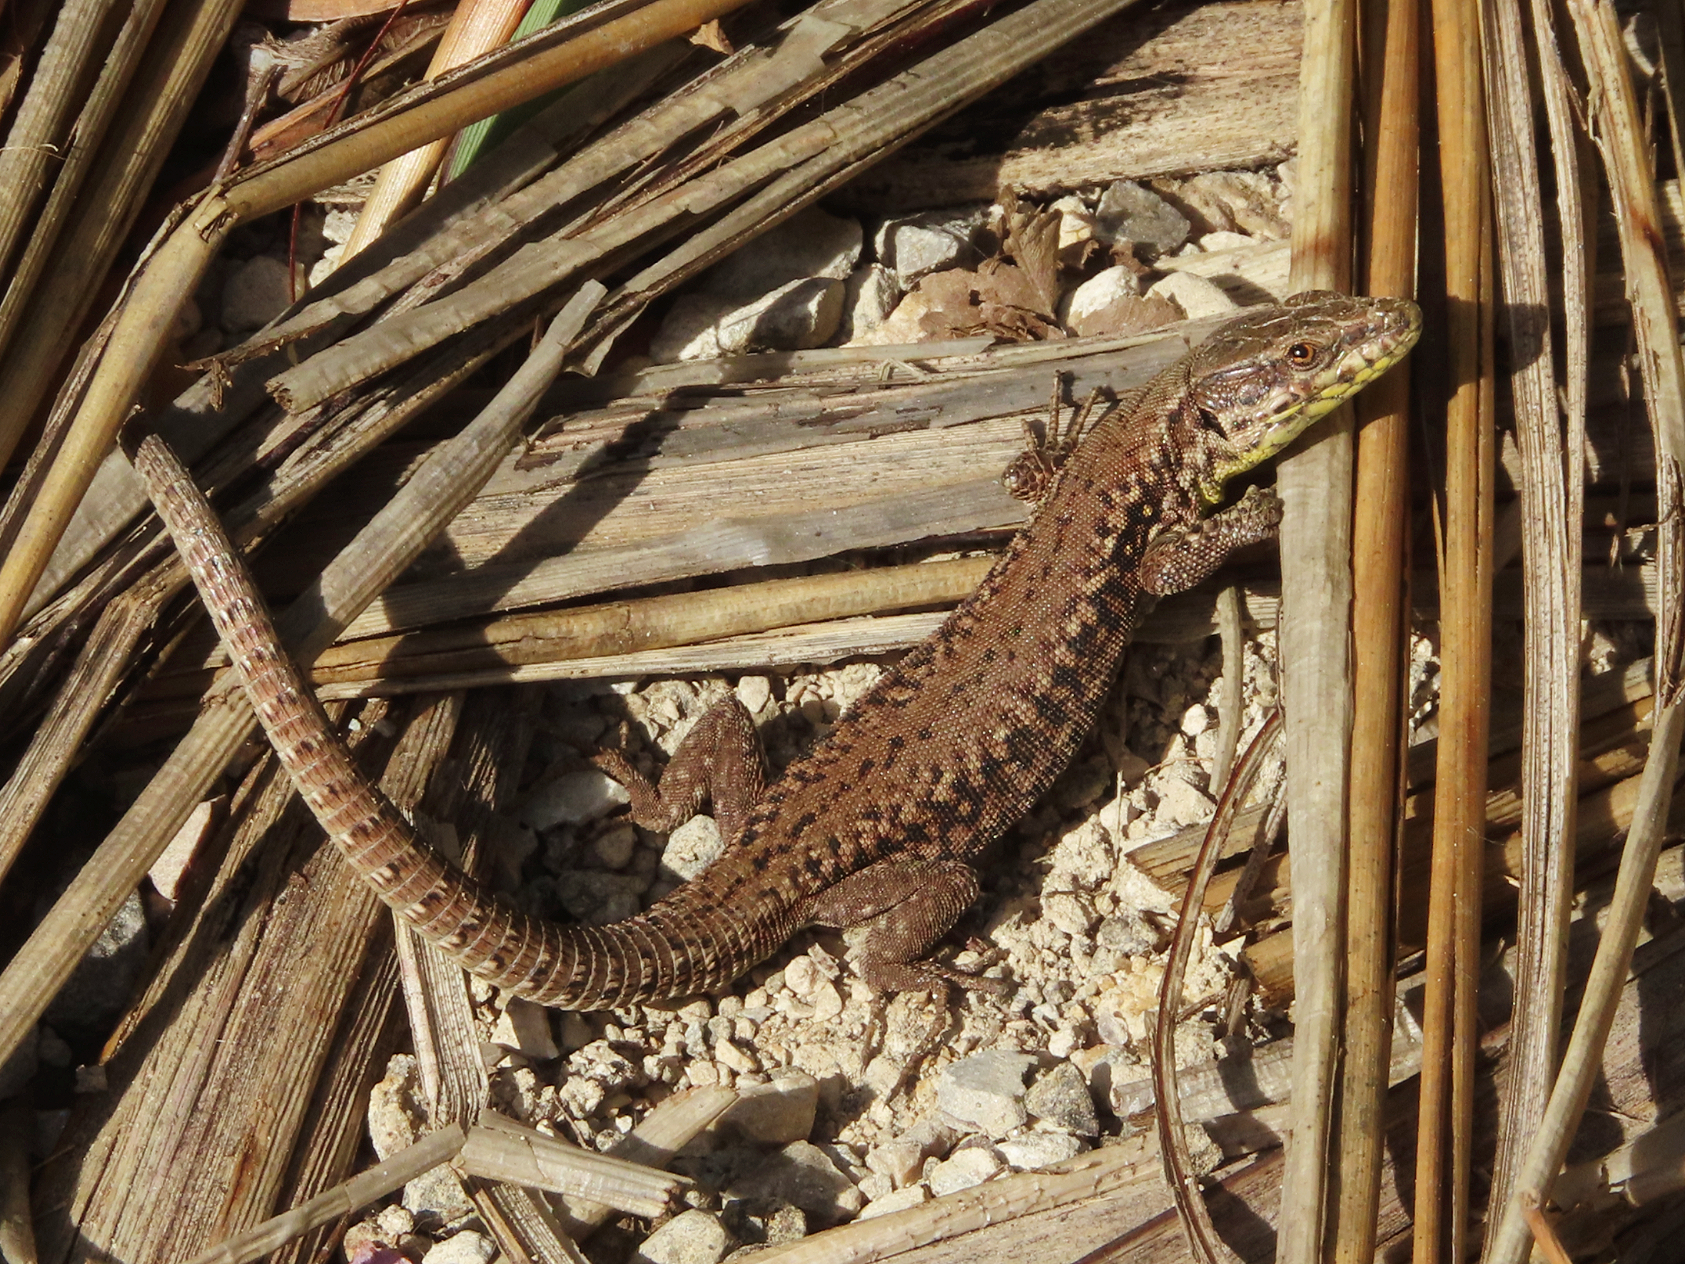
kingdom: Animalia
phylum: Chordata
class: Squamata
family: Lacertidae
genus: Podarcis
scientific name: Podarcis muralis
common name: Common wall lizard
